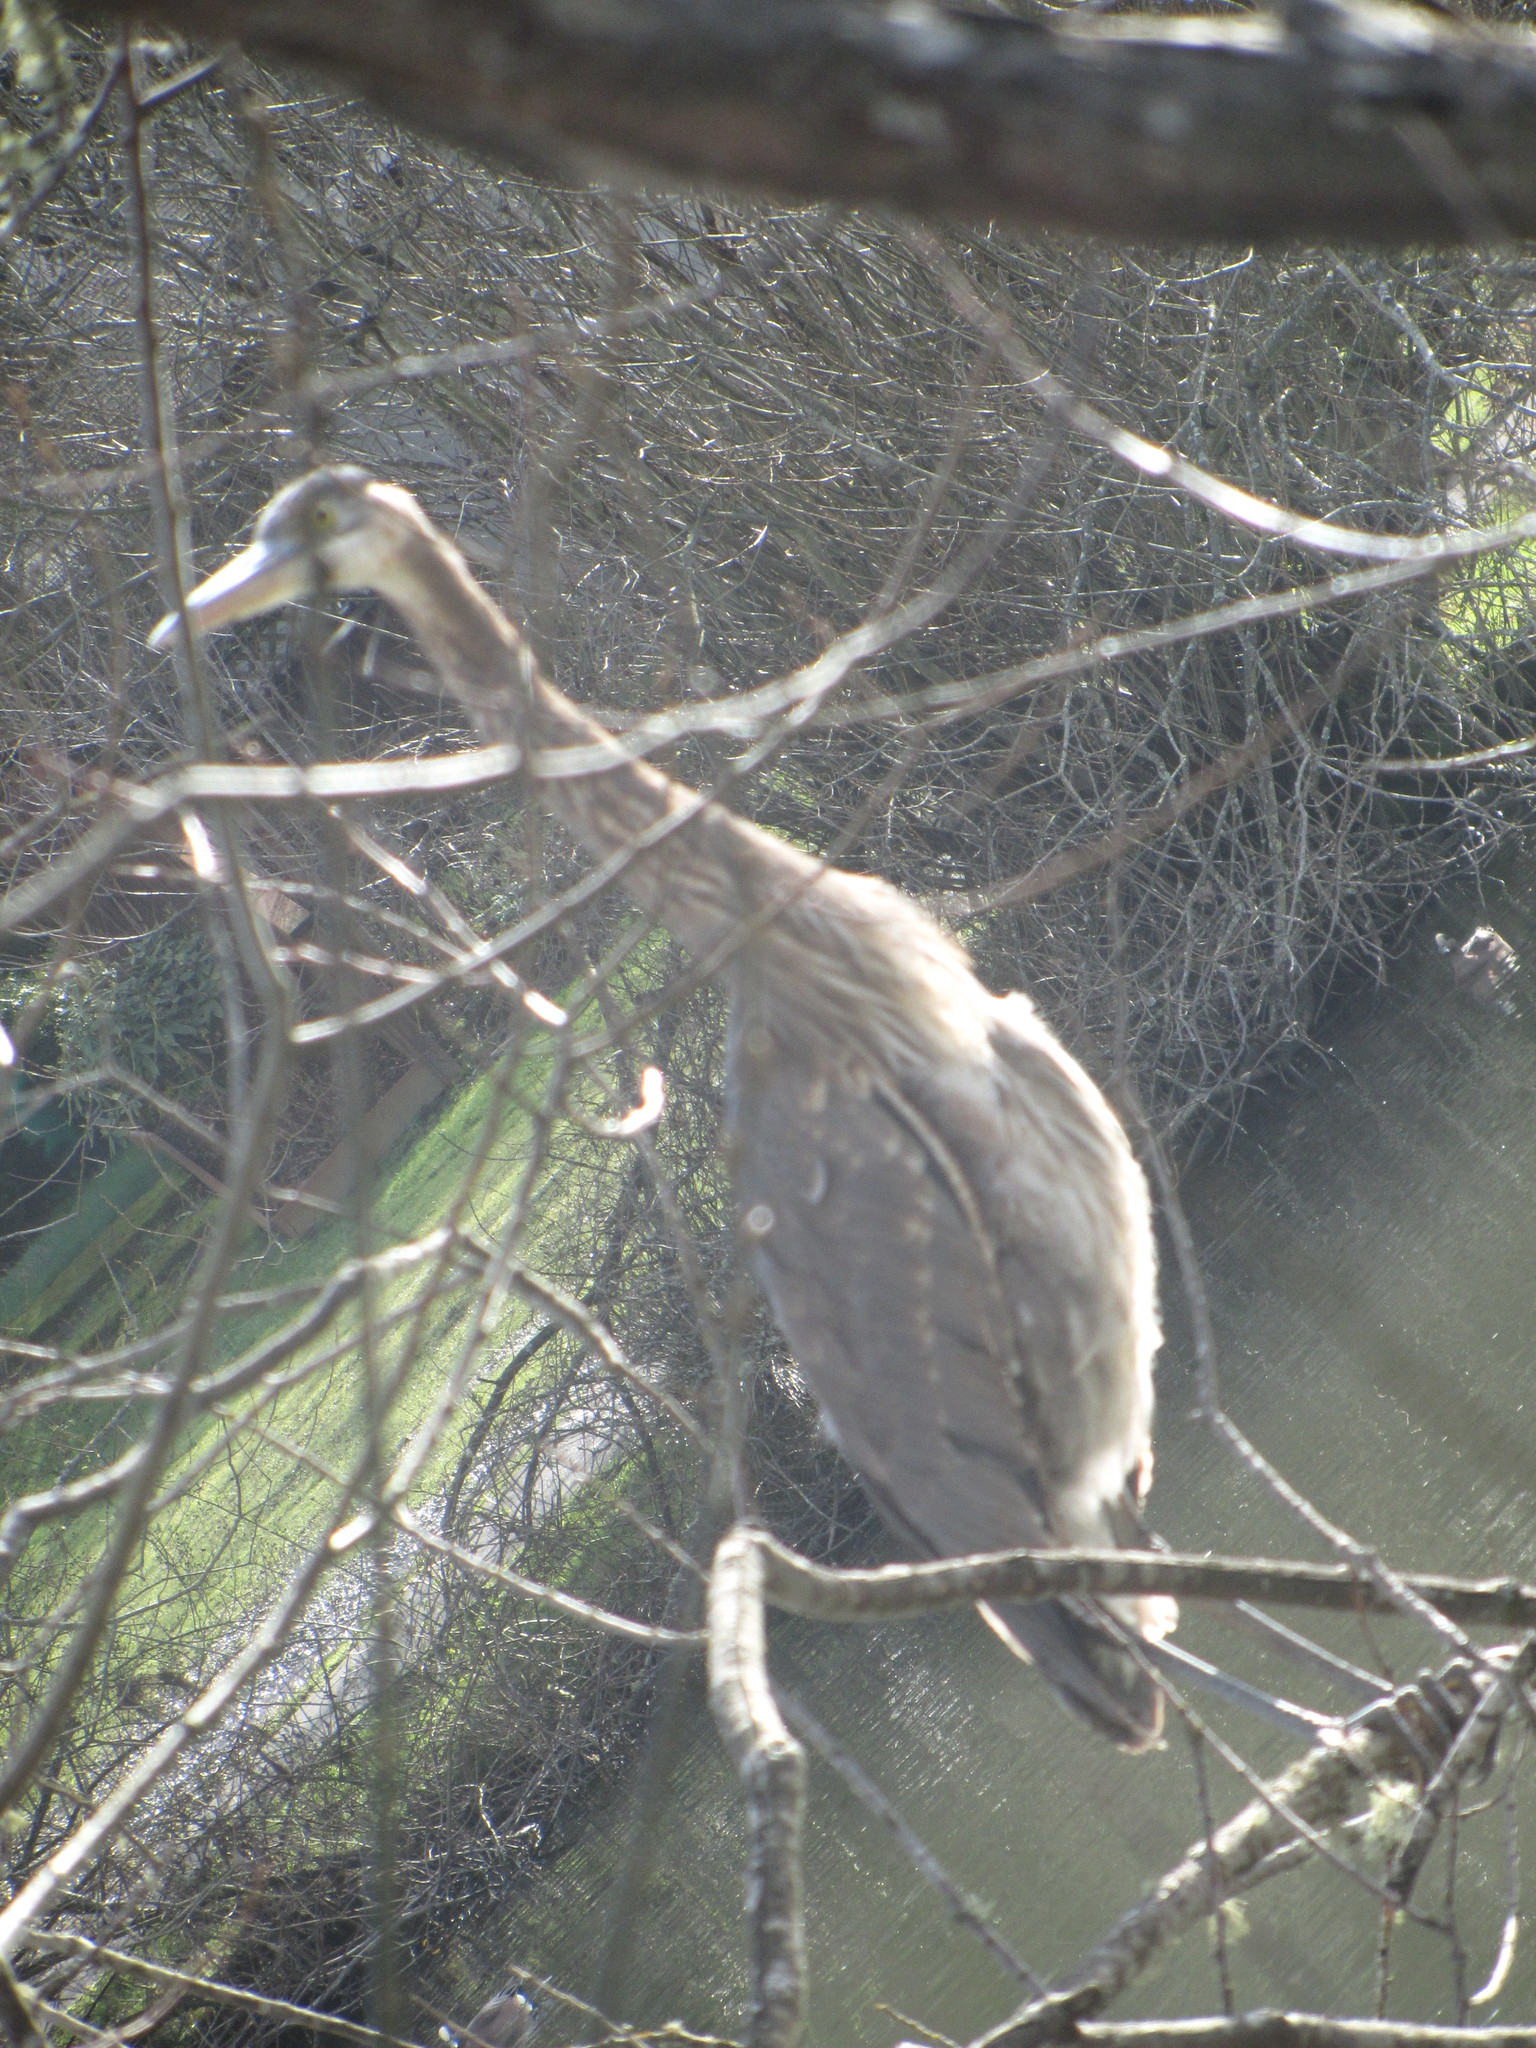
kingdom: Animalia
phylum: Chordata
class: Aves
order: Pelecaniformes
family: Ardeidae
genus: Ardea
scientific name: Ardea herodias
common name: Great blue heron
